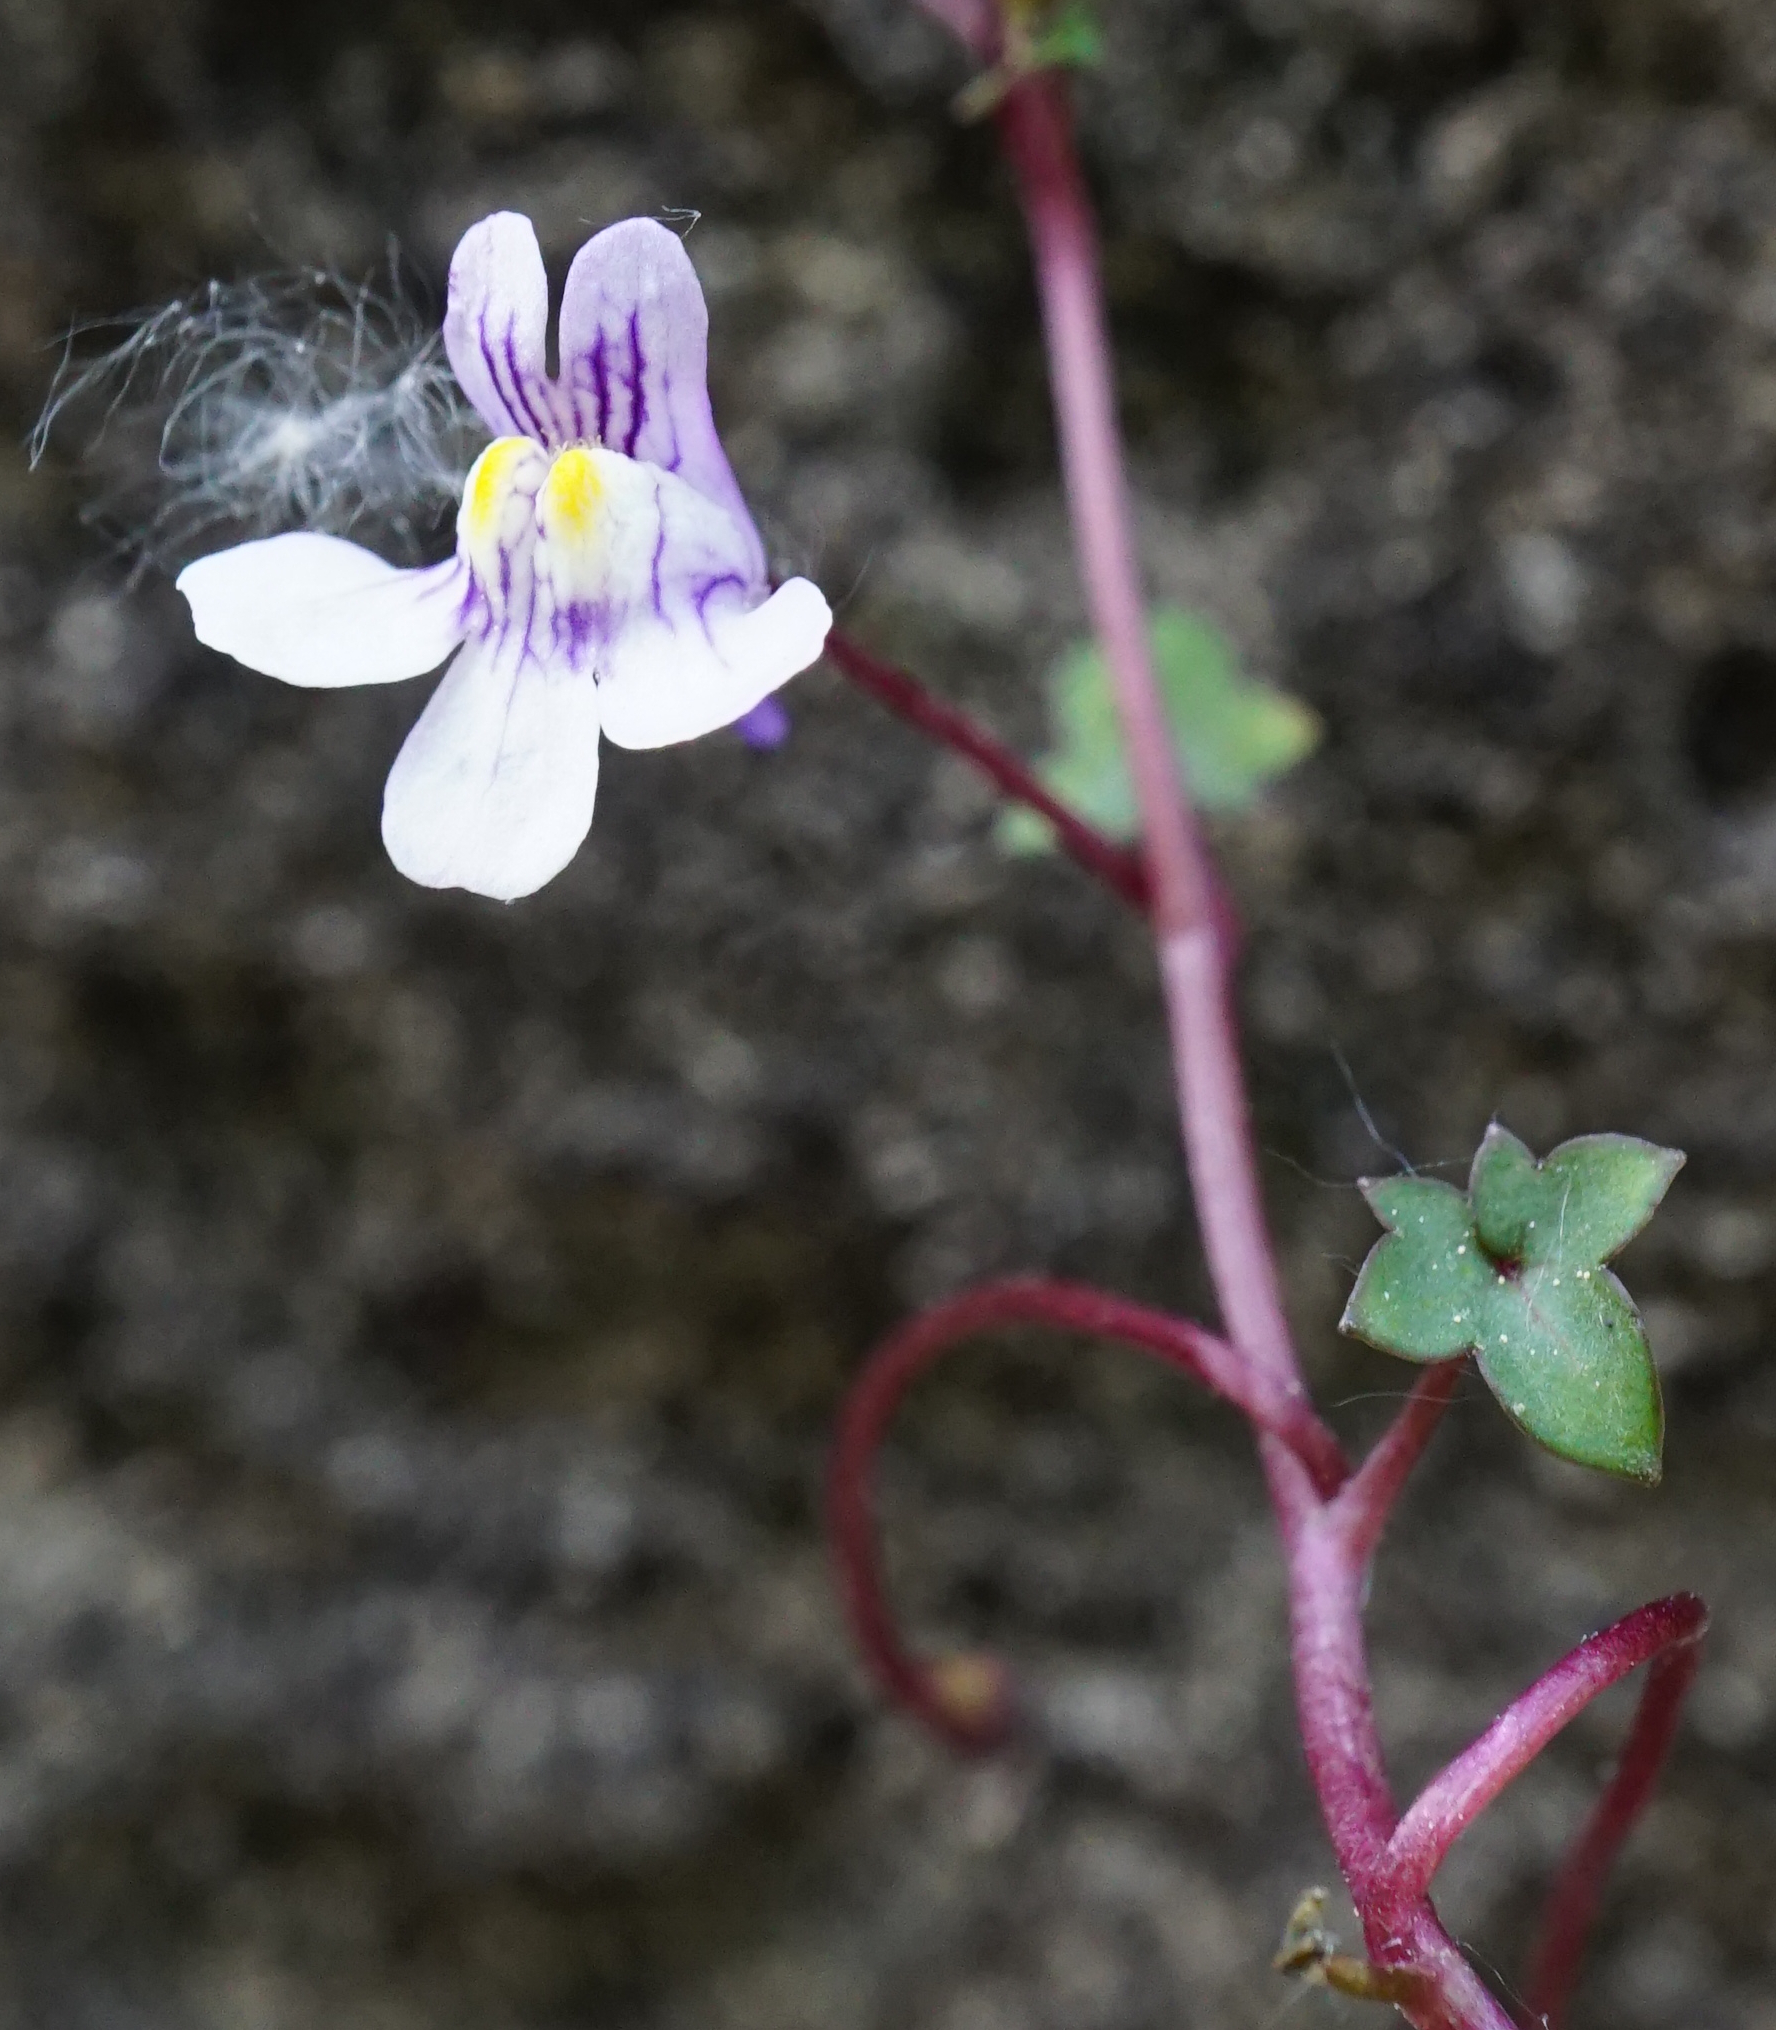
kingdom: Plantae
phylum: Tracheophyta
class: Magnoliopsida
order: Lamiales
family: Plantaginaceae
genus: Cymbalaria
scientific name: Cymbalaria muralis
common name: Ivy-leaved toadflax
